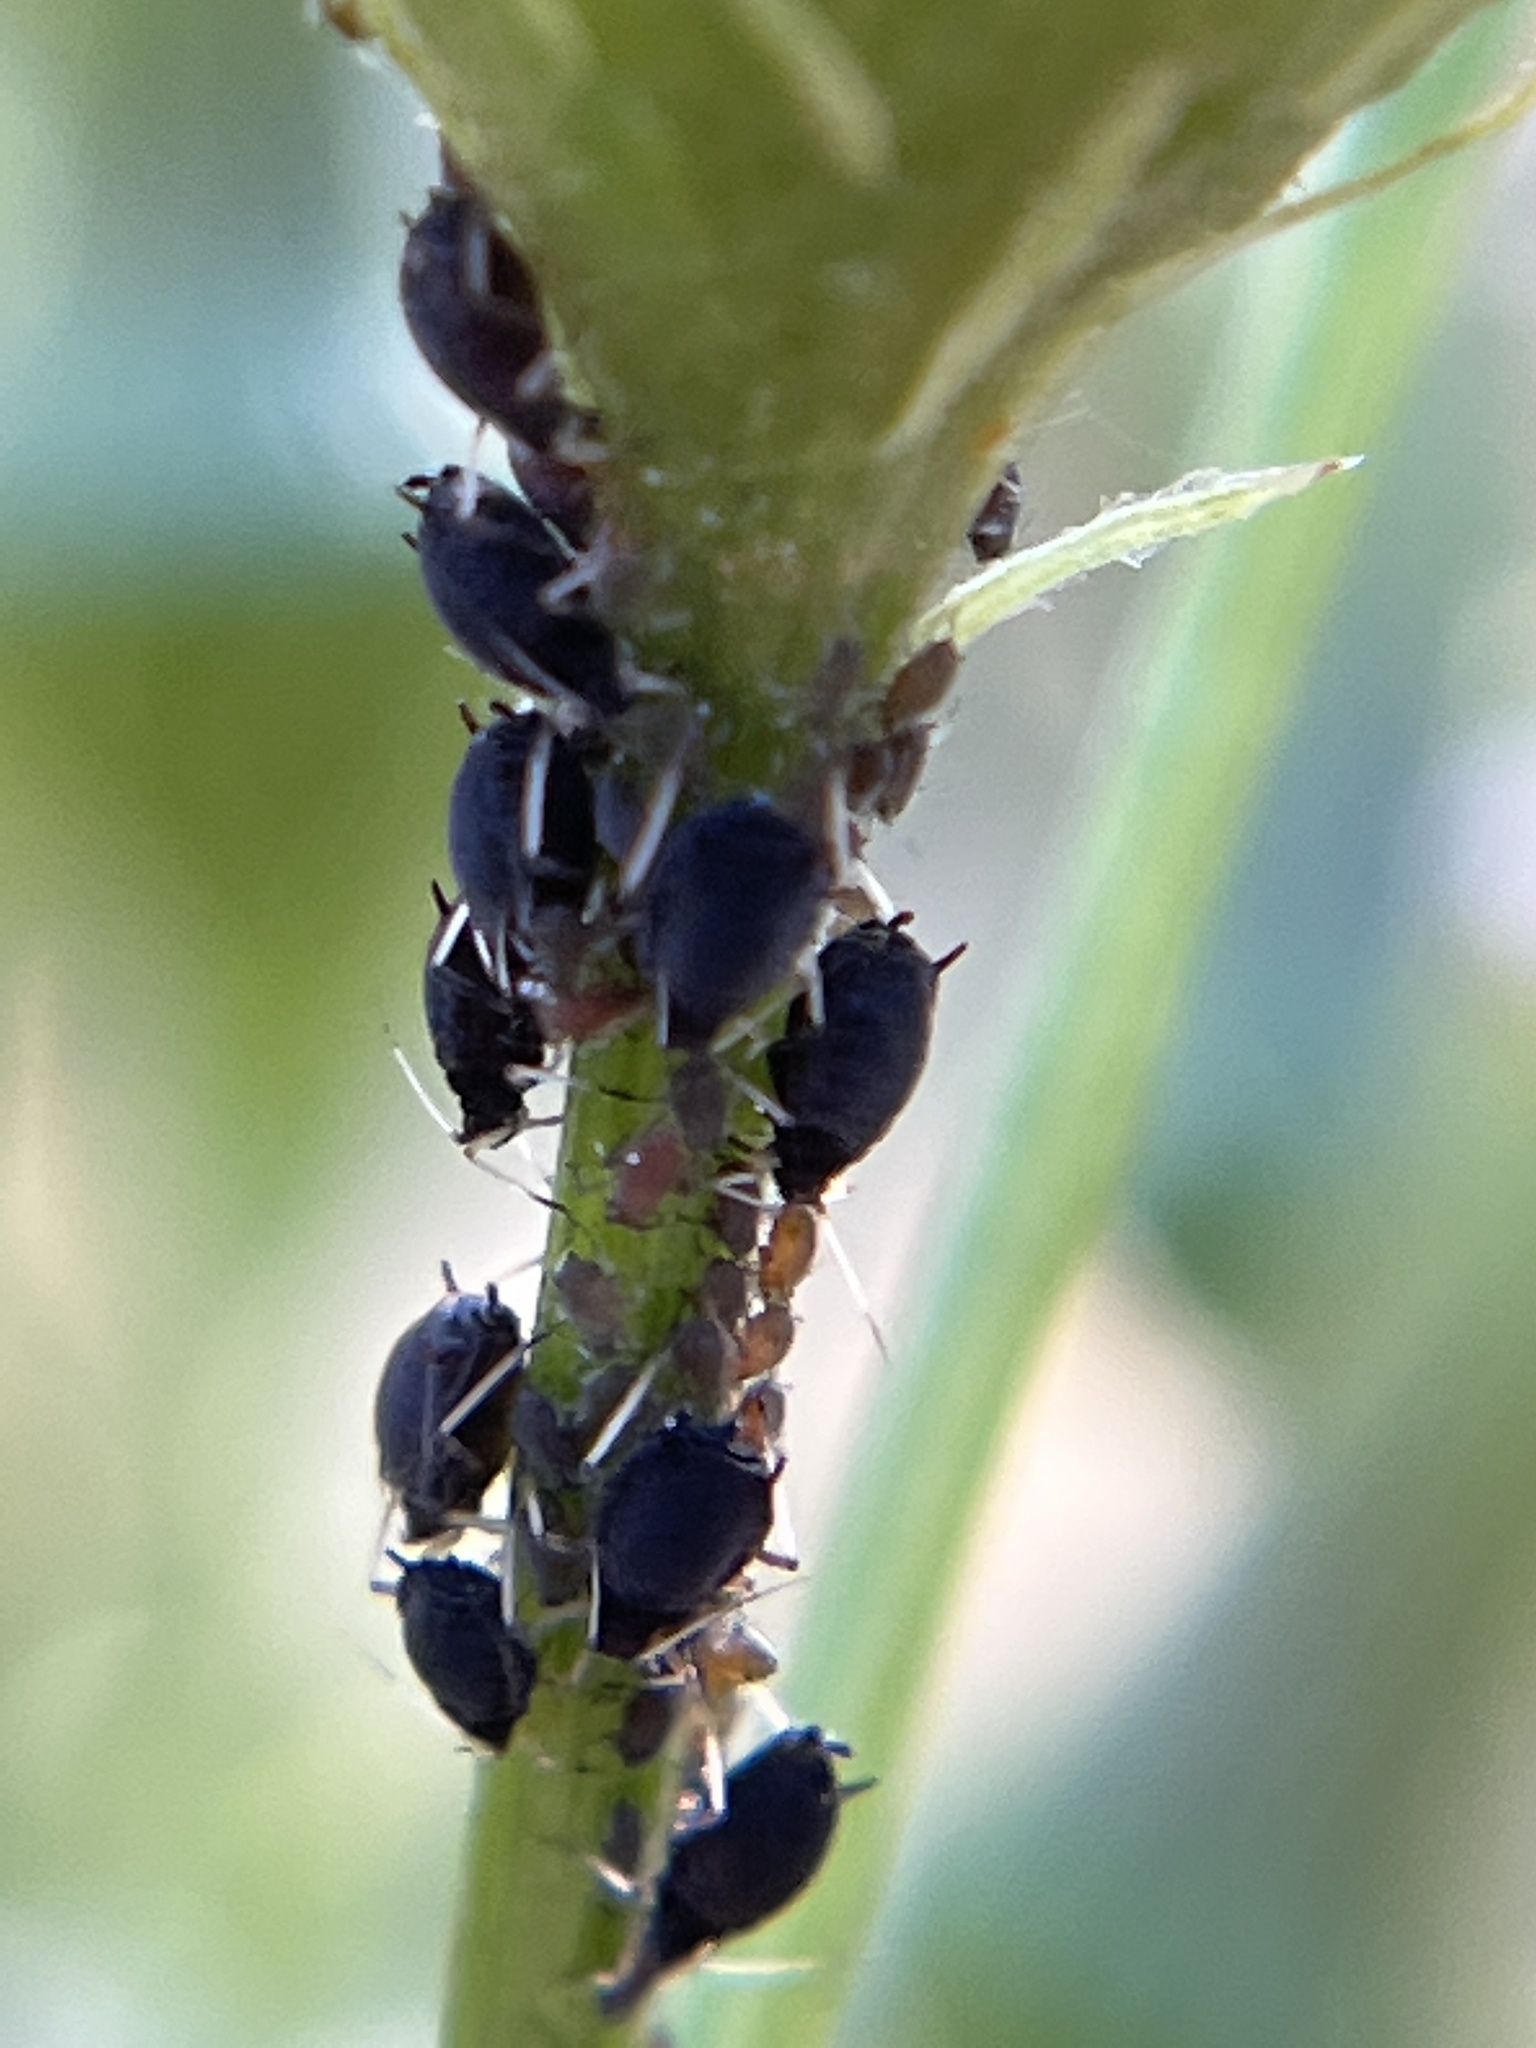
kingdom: Animalia
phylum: Arthropoda
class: Insecta
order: Hemiptera
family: Aphididae
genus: Aphis
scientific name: Aphis craccivora
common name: Cowpea aphid
